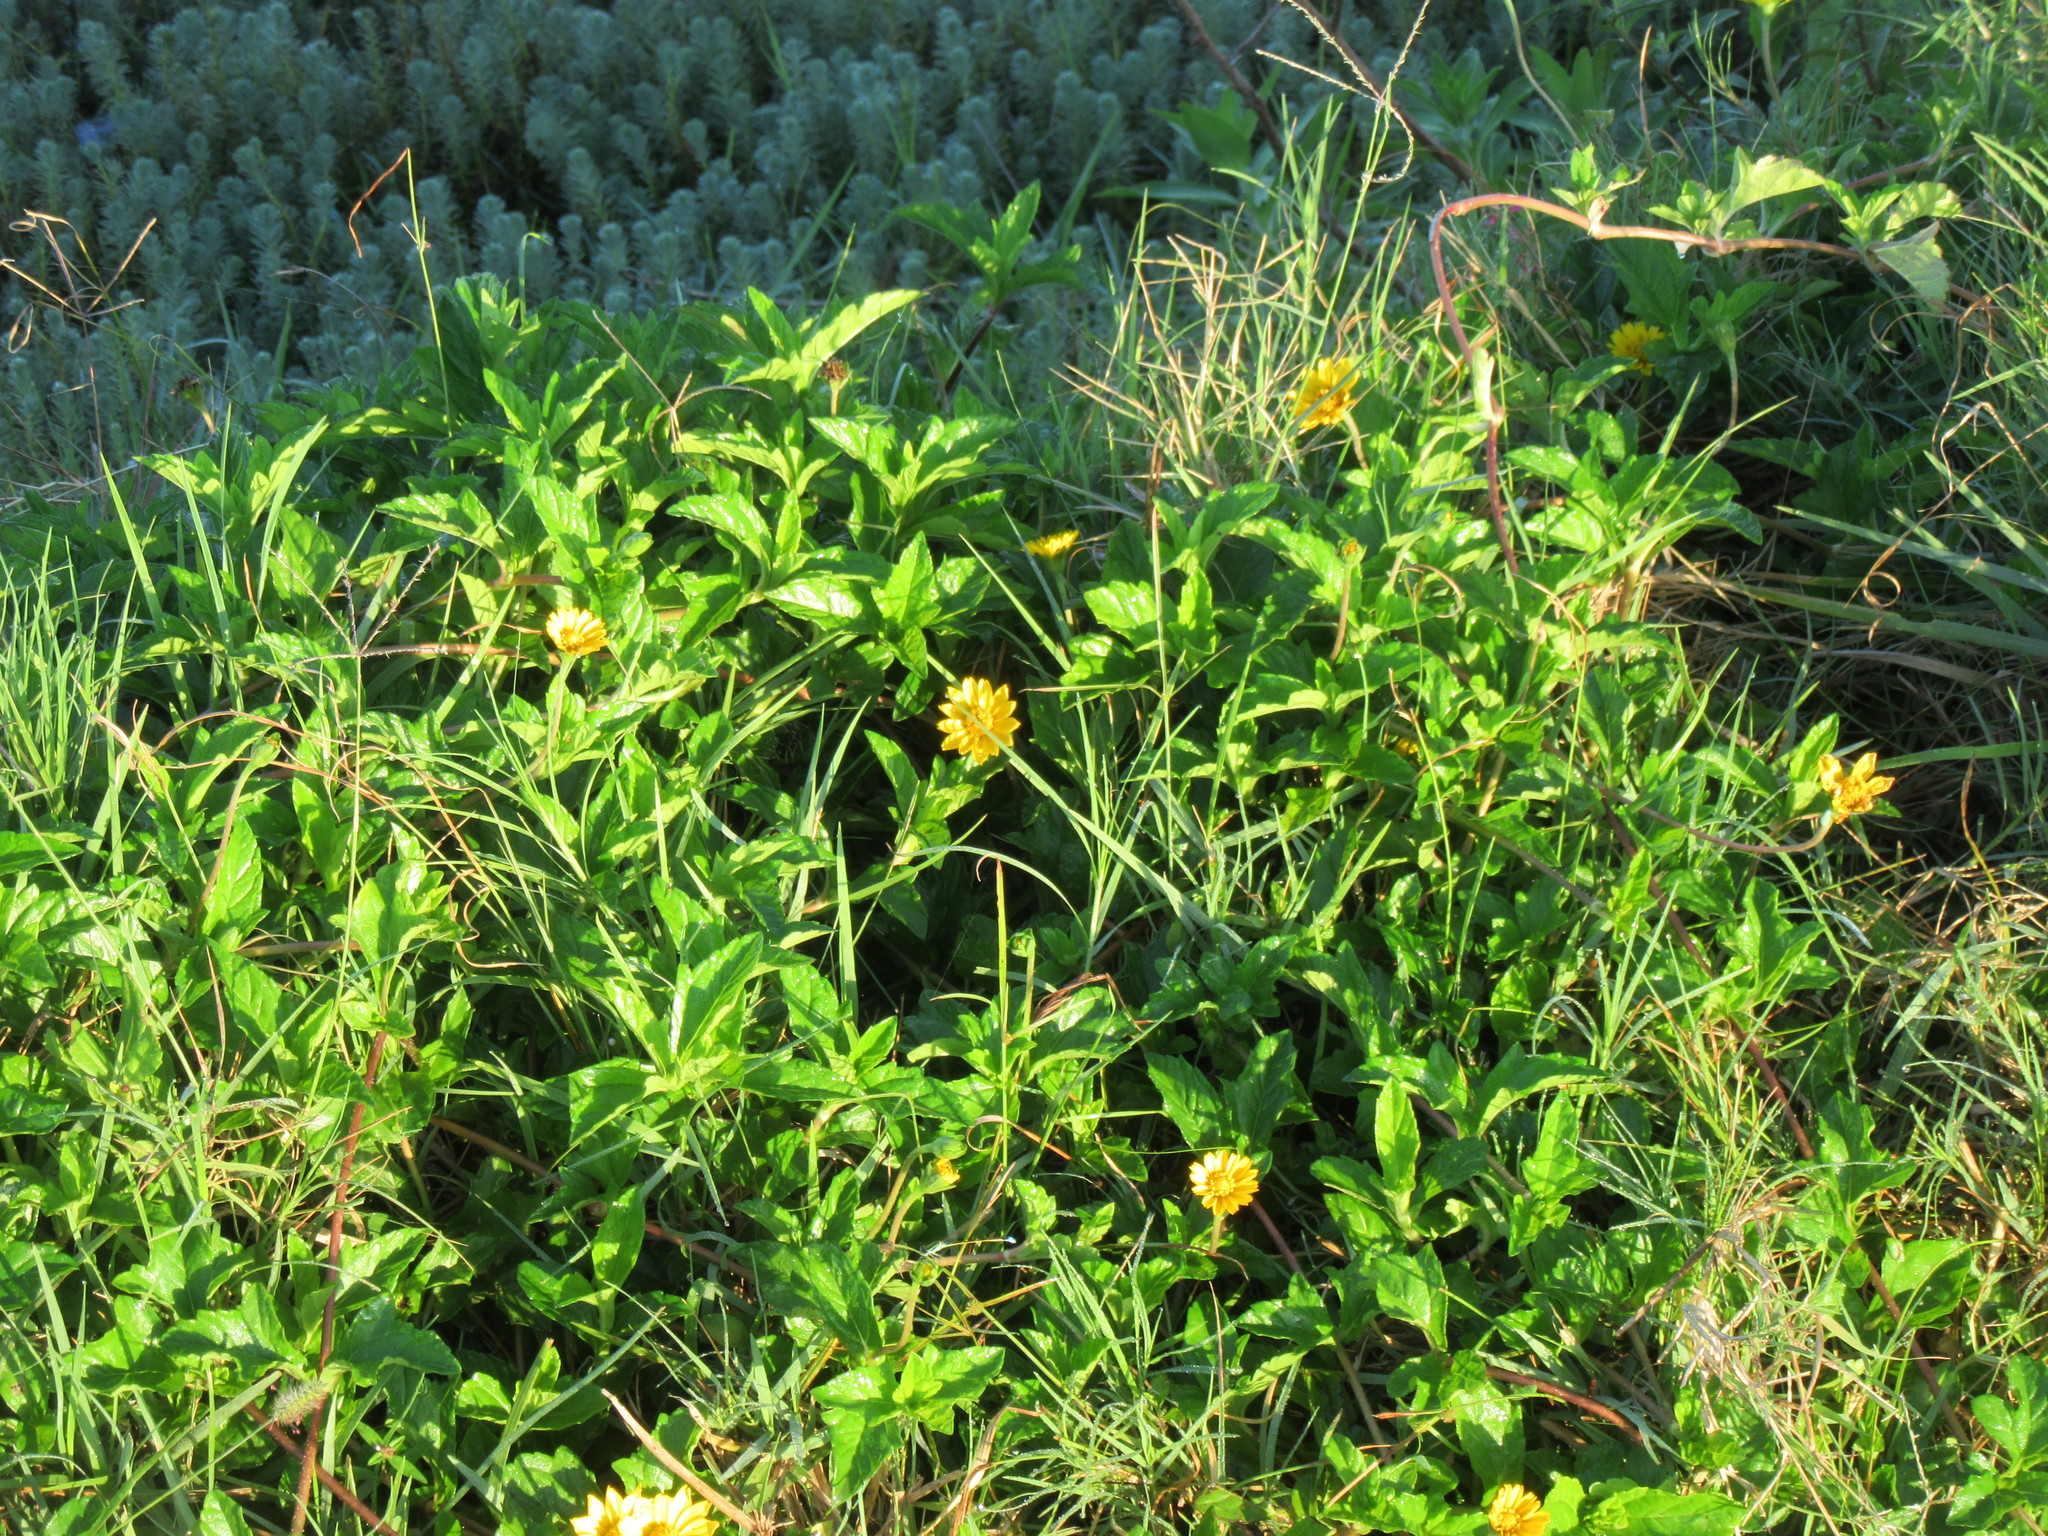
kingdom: Plantae
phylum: Tracheophyta
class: Magnoliopsida
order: Asterales
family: Asteraceae
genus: Sphagneticola
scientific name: Sphagneticola trilobata
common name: Bay biscayne creeping-oxeye
